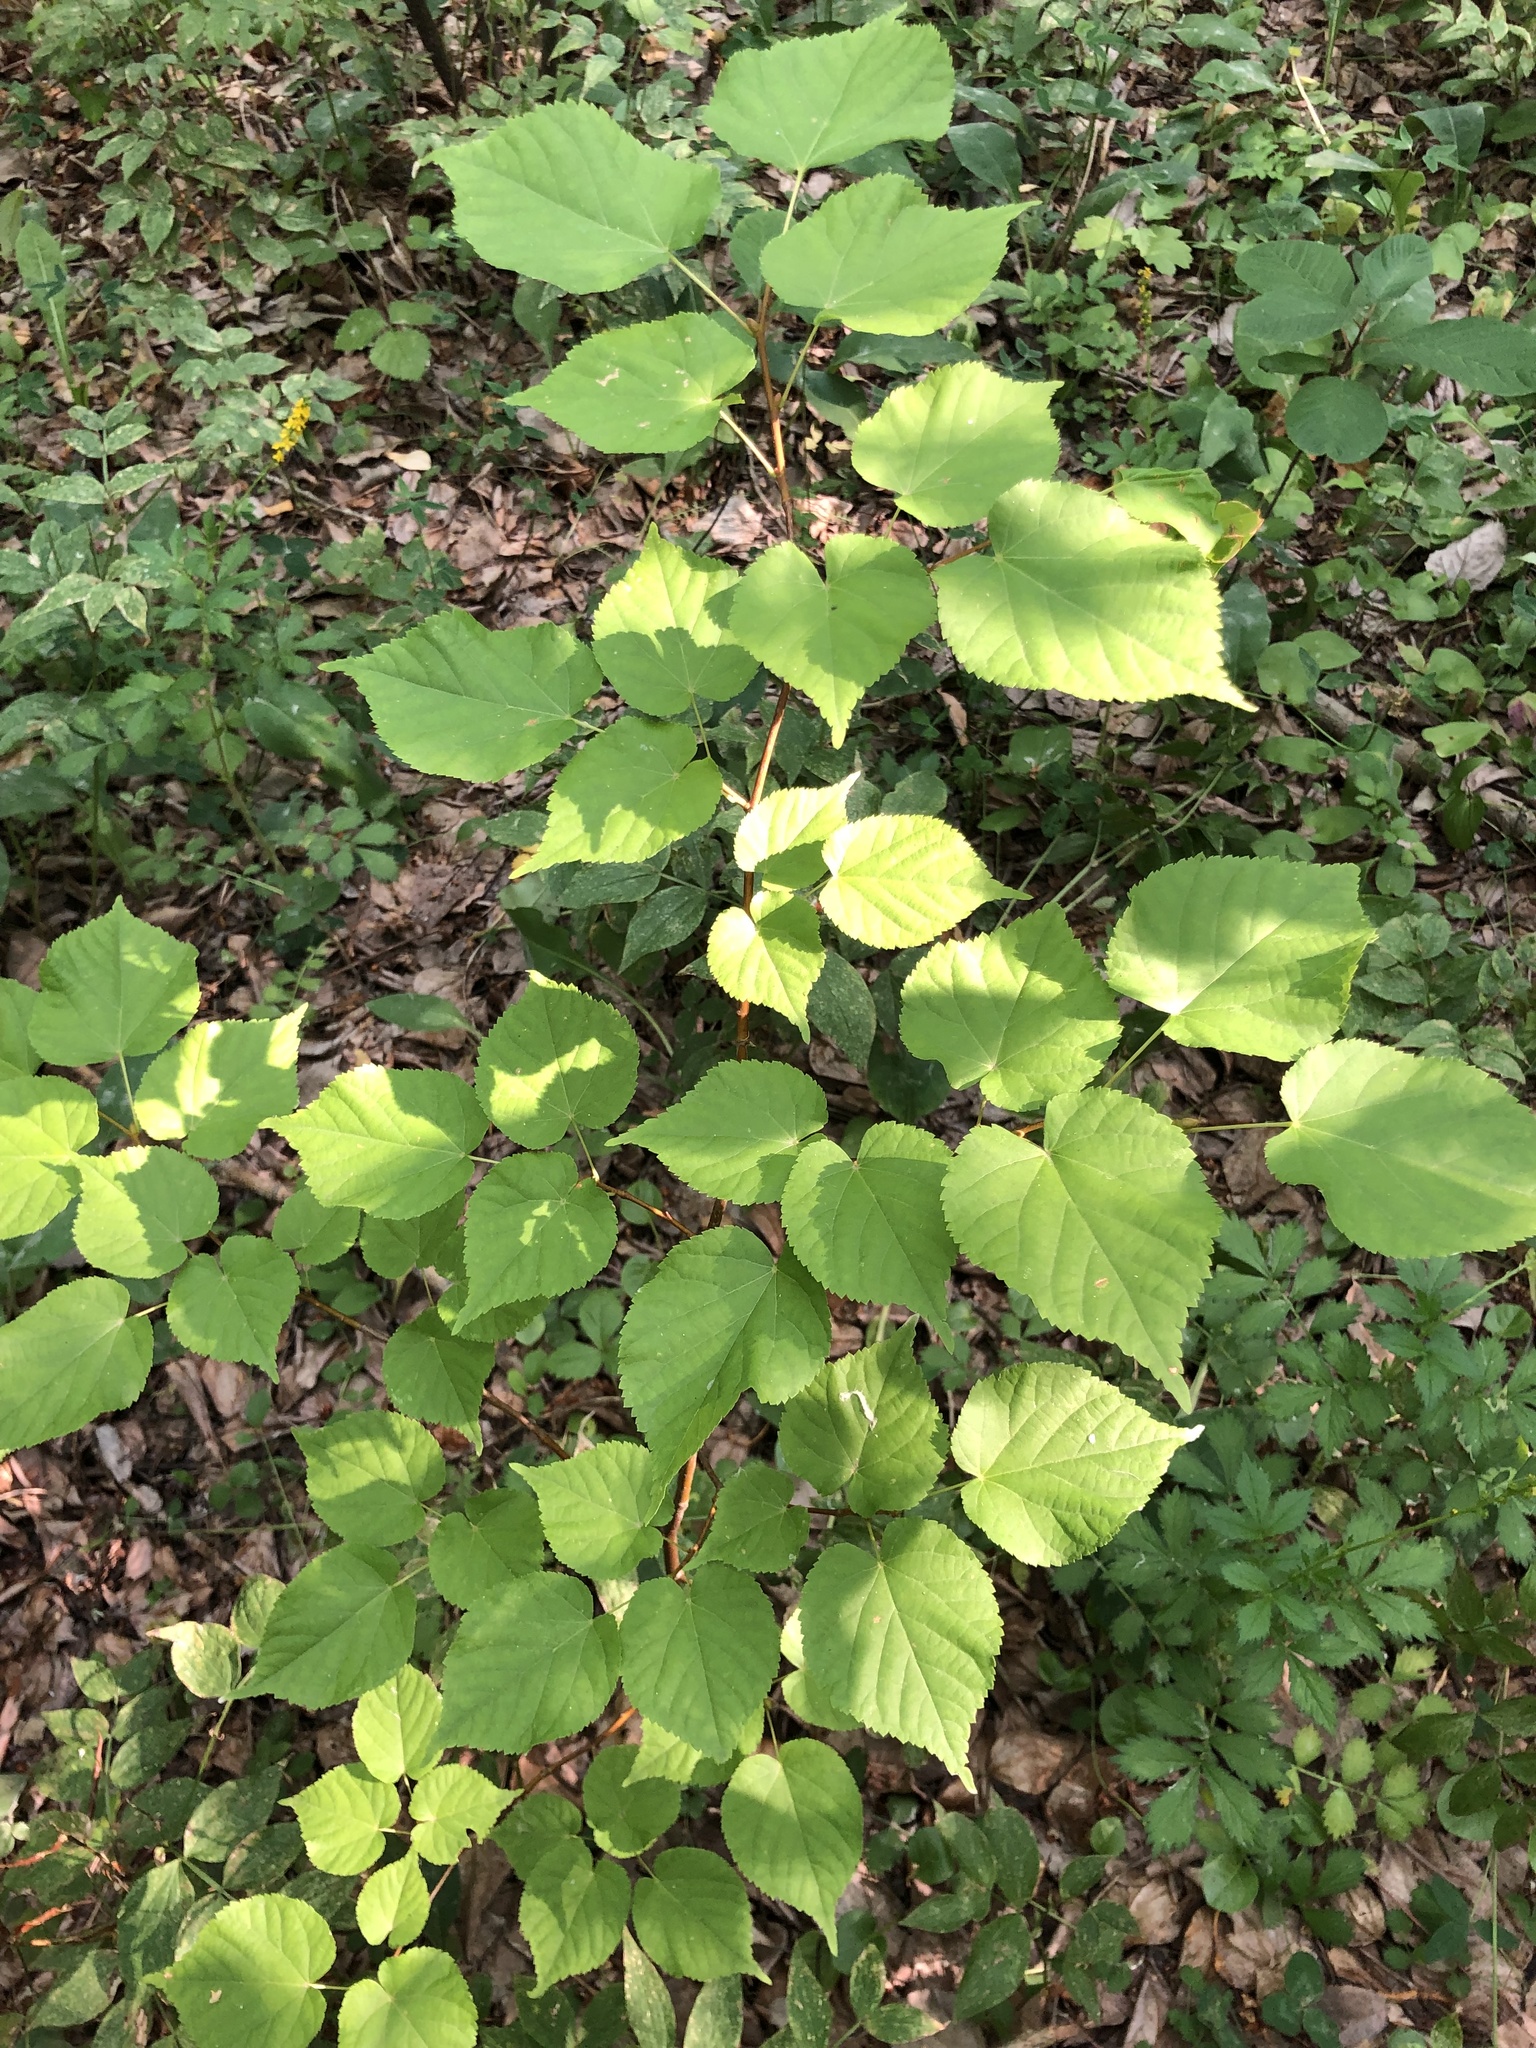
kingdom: Plantae
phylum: Tracheophyta
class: Magnoliopsida
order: Malvales
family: Malvaceae
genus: Tilia
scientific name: Tilia cordata
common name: Small-leaved lime
